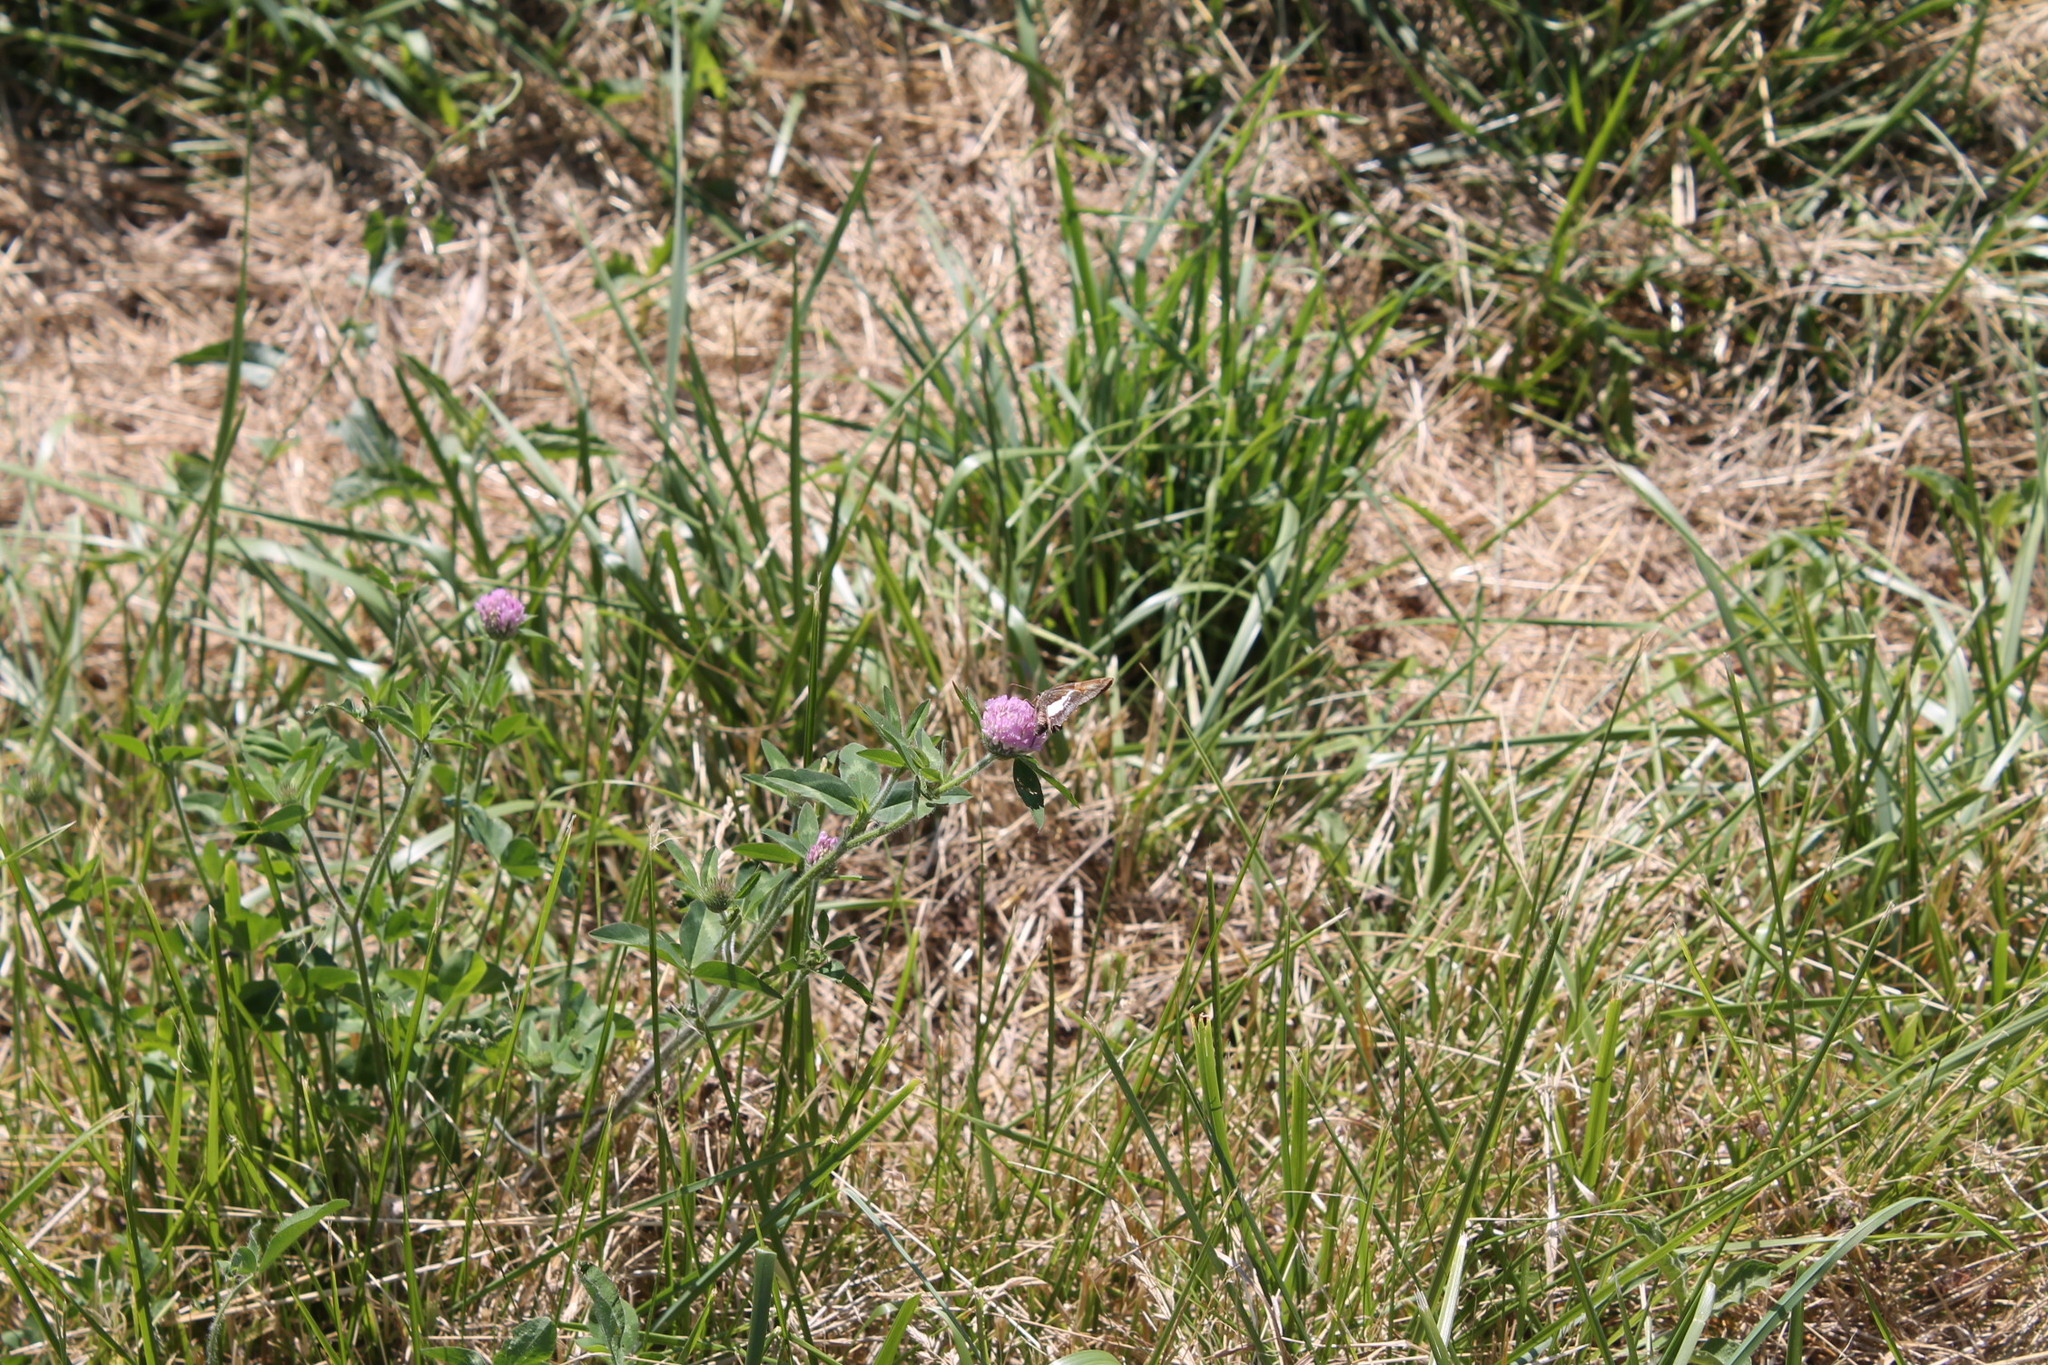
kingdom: Animalia
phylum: Arthropoda
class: Insecta
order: Lepidoptera
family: Hesperiidae
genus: Epargyreus
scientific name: Epargyreus clarus
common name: Silver-spotted skipper
